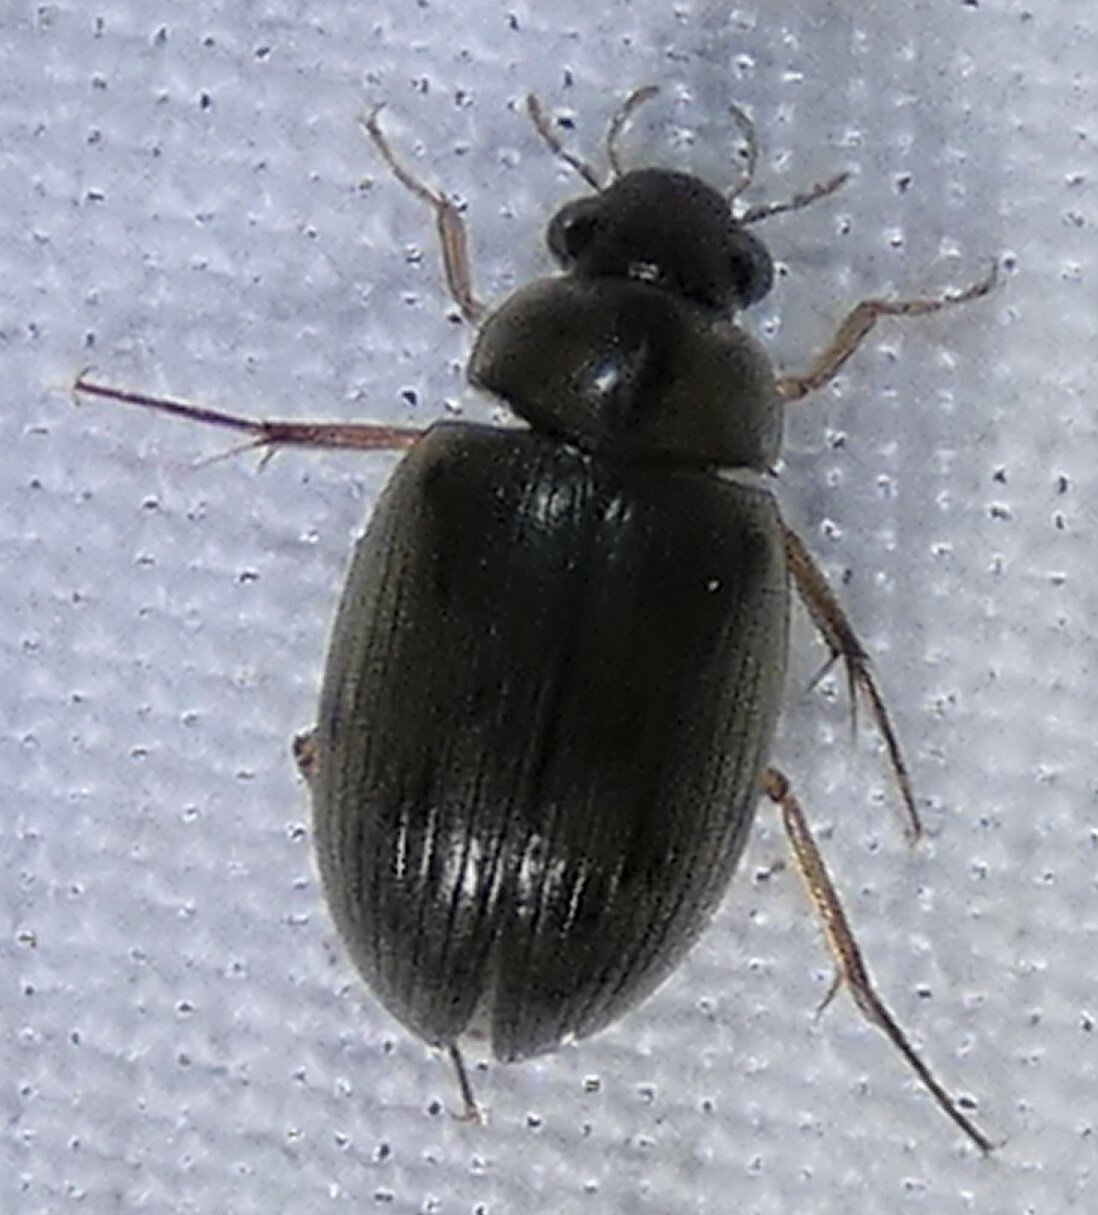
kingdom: Animalia
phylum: Arthropoda
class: Insecta
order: Coleoptera
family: Hydrophilidae
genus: Berosus
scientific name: Berosus
